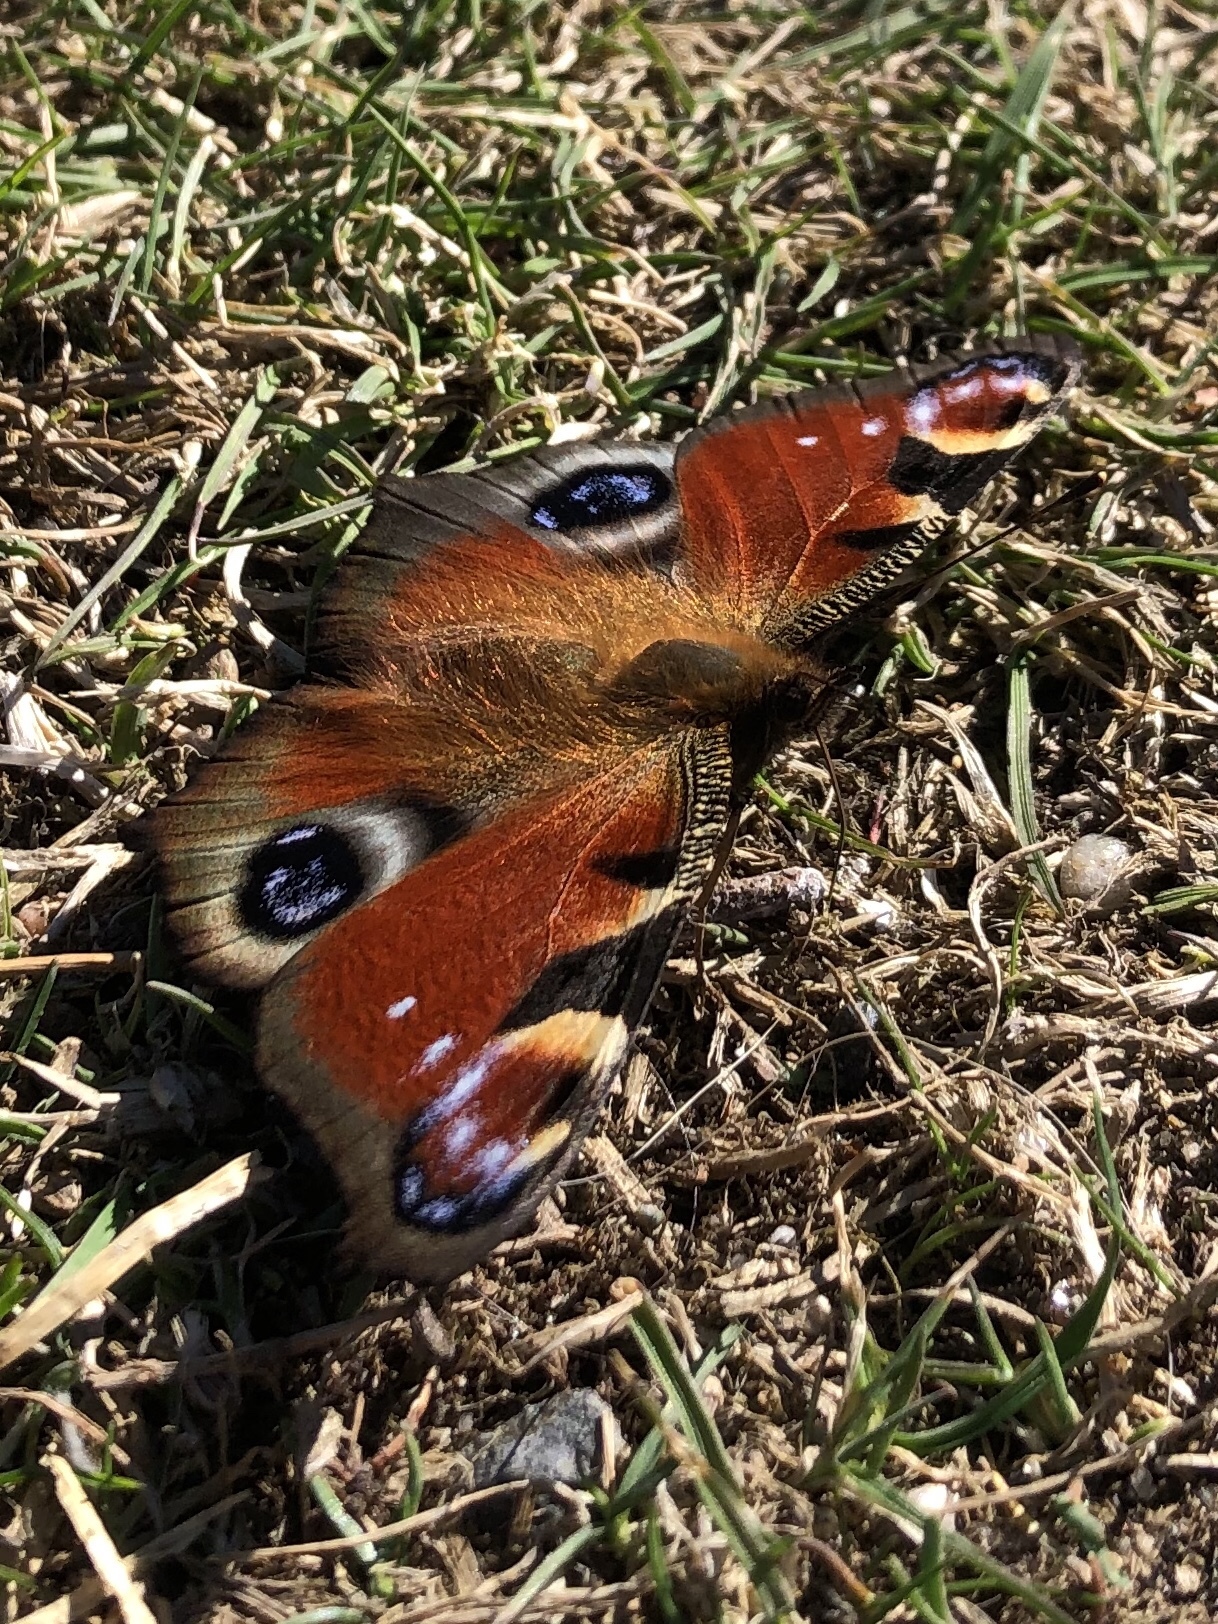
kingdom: Animalia
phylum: Arthropoda
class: Insecta
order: Lepidoptera
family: Nymphalidae
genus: Aglais
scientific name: Aglais io
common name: Peacock
